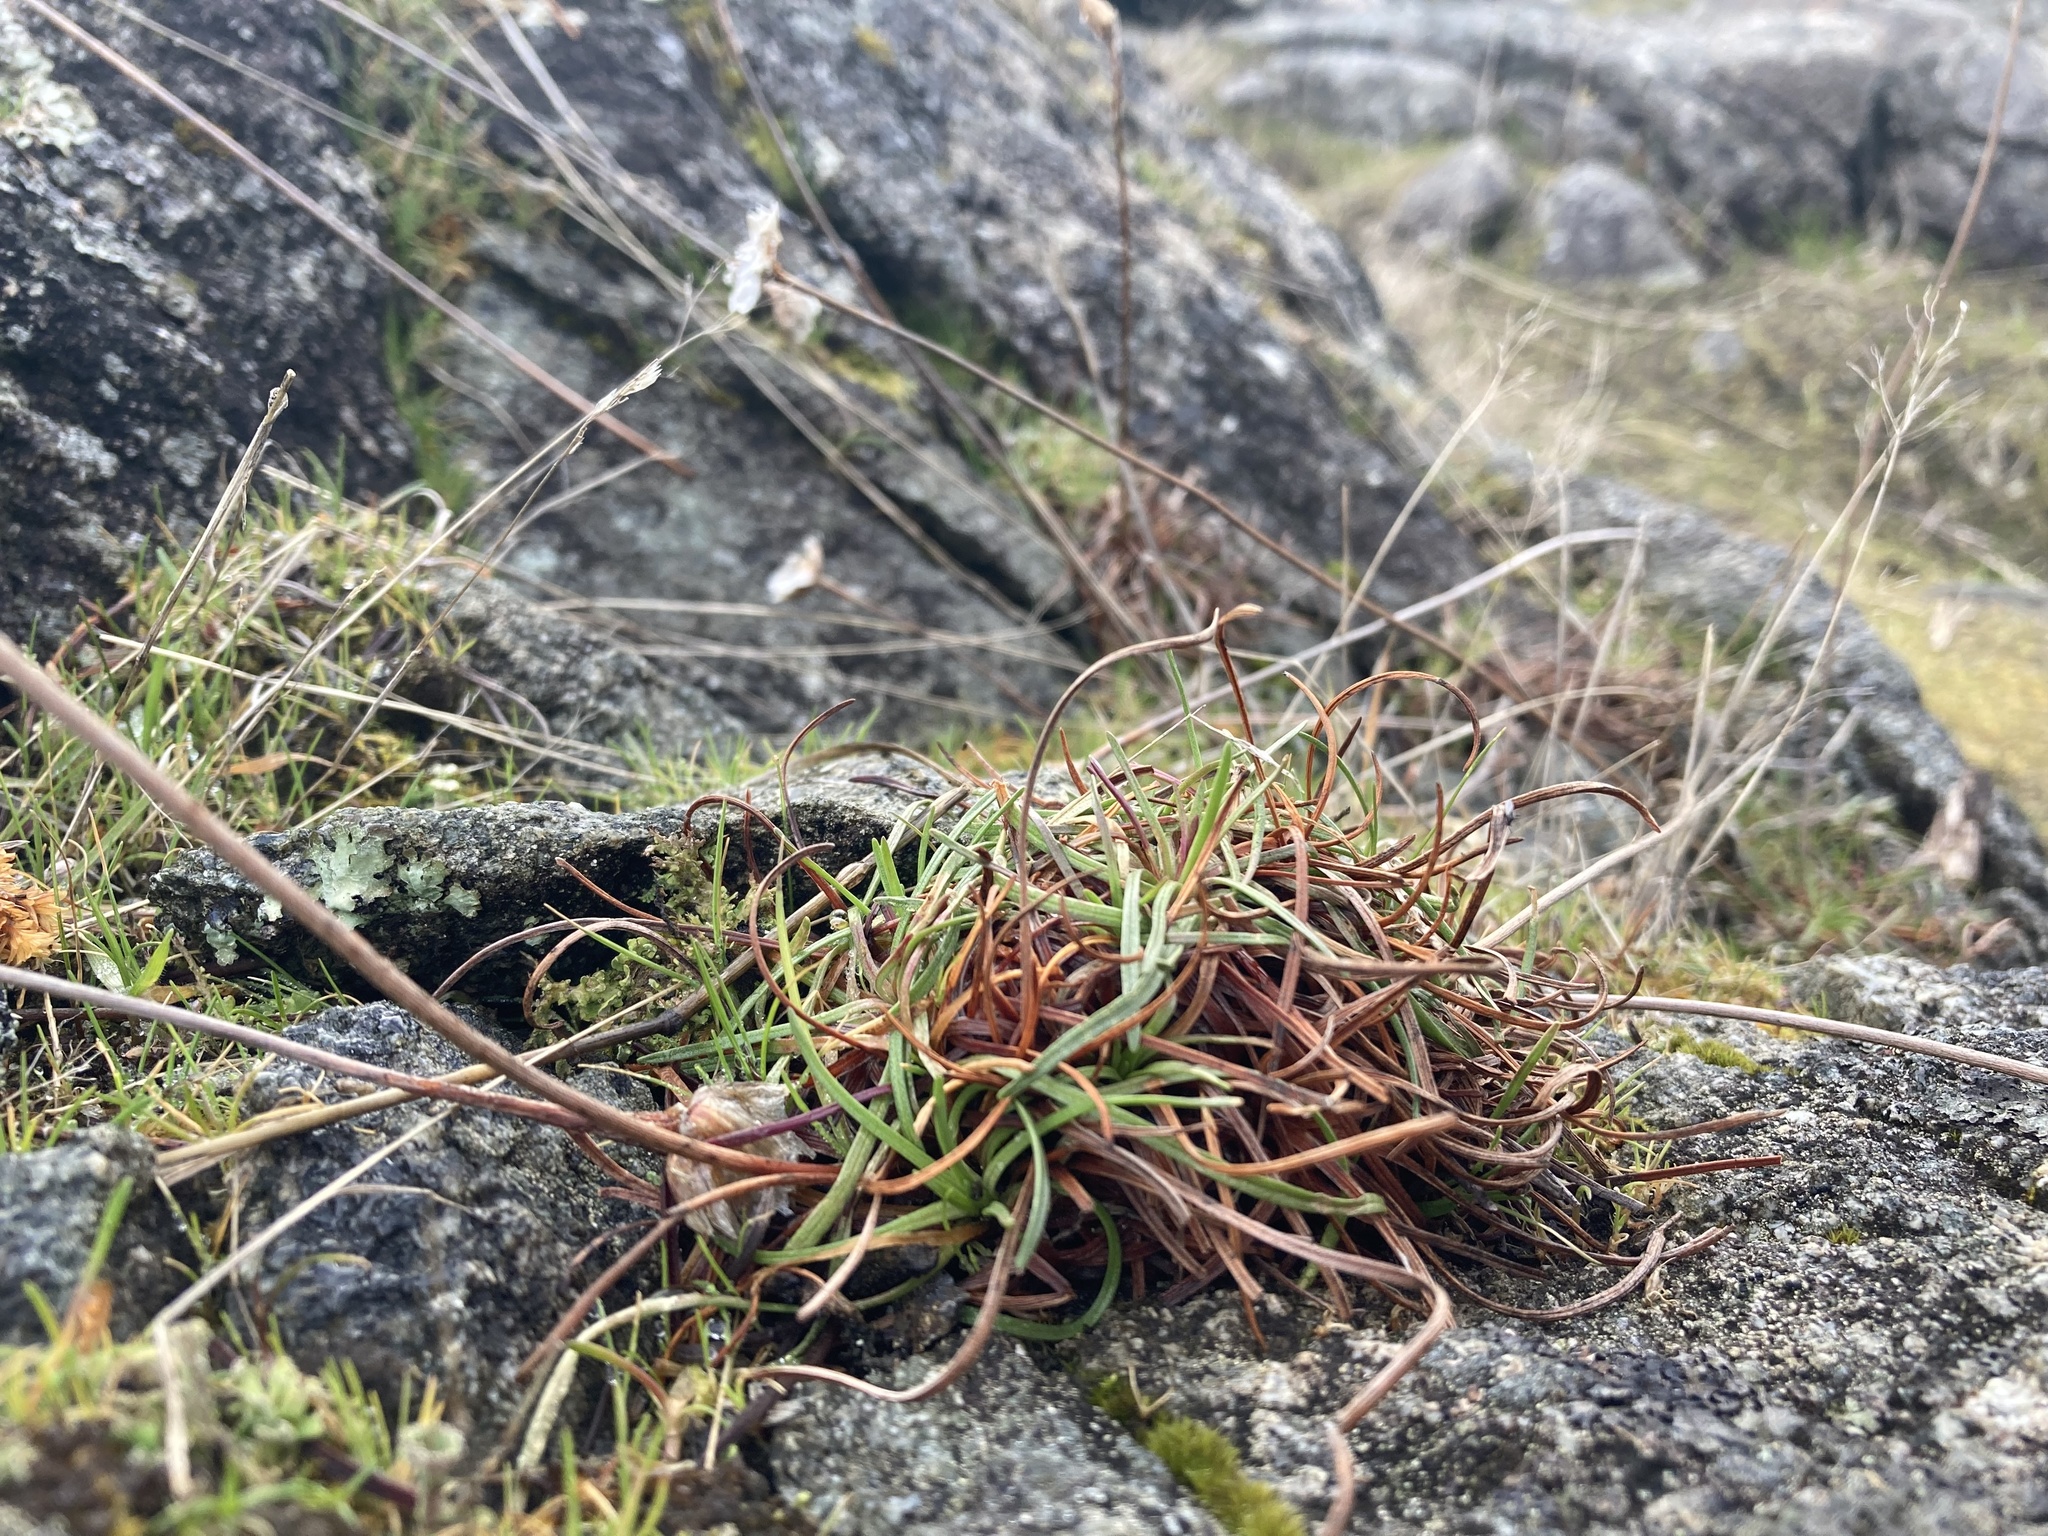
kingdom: Plantae
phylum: Tracheophyta
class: Magnoliopsida
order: Caryophyllales
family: Plumbaginaceae
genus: Armeria
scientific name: Armeria maritima
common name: Thrift
